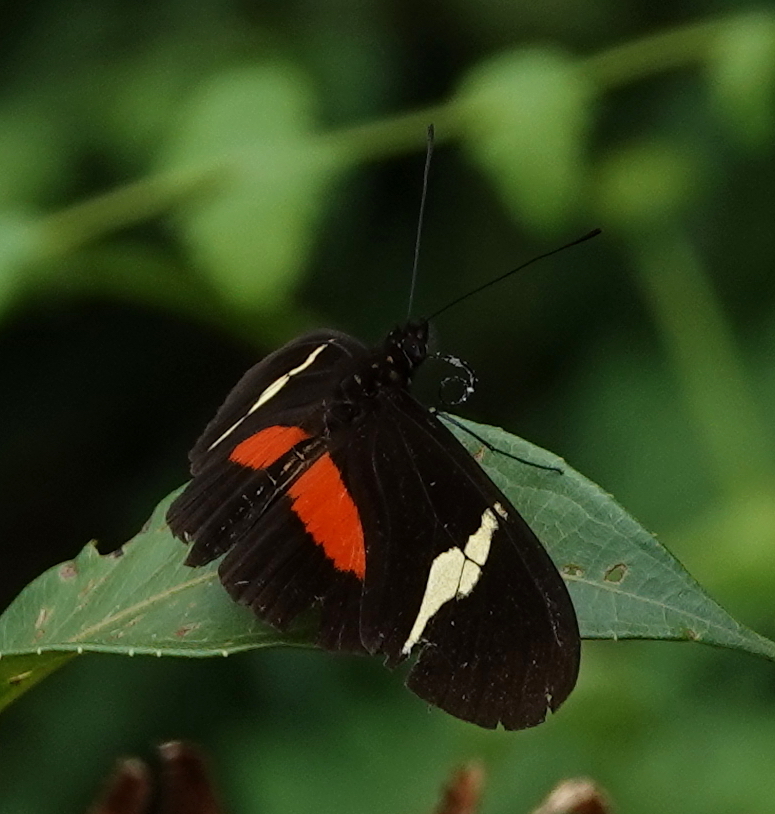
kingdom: Animalia
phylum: Arthropoda
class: Insecta
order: Lepidoptera
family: Nymphalidae
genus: Heliconius
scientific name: Heliconius clysonymus
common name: Clysonymus longwing
